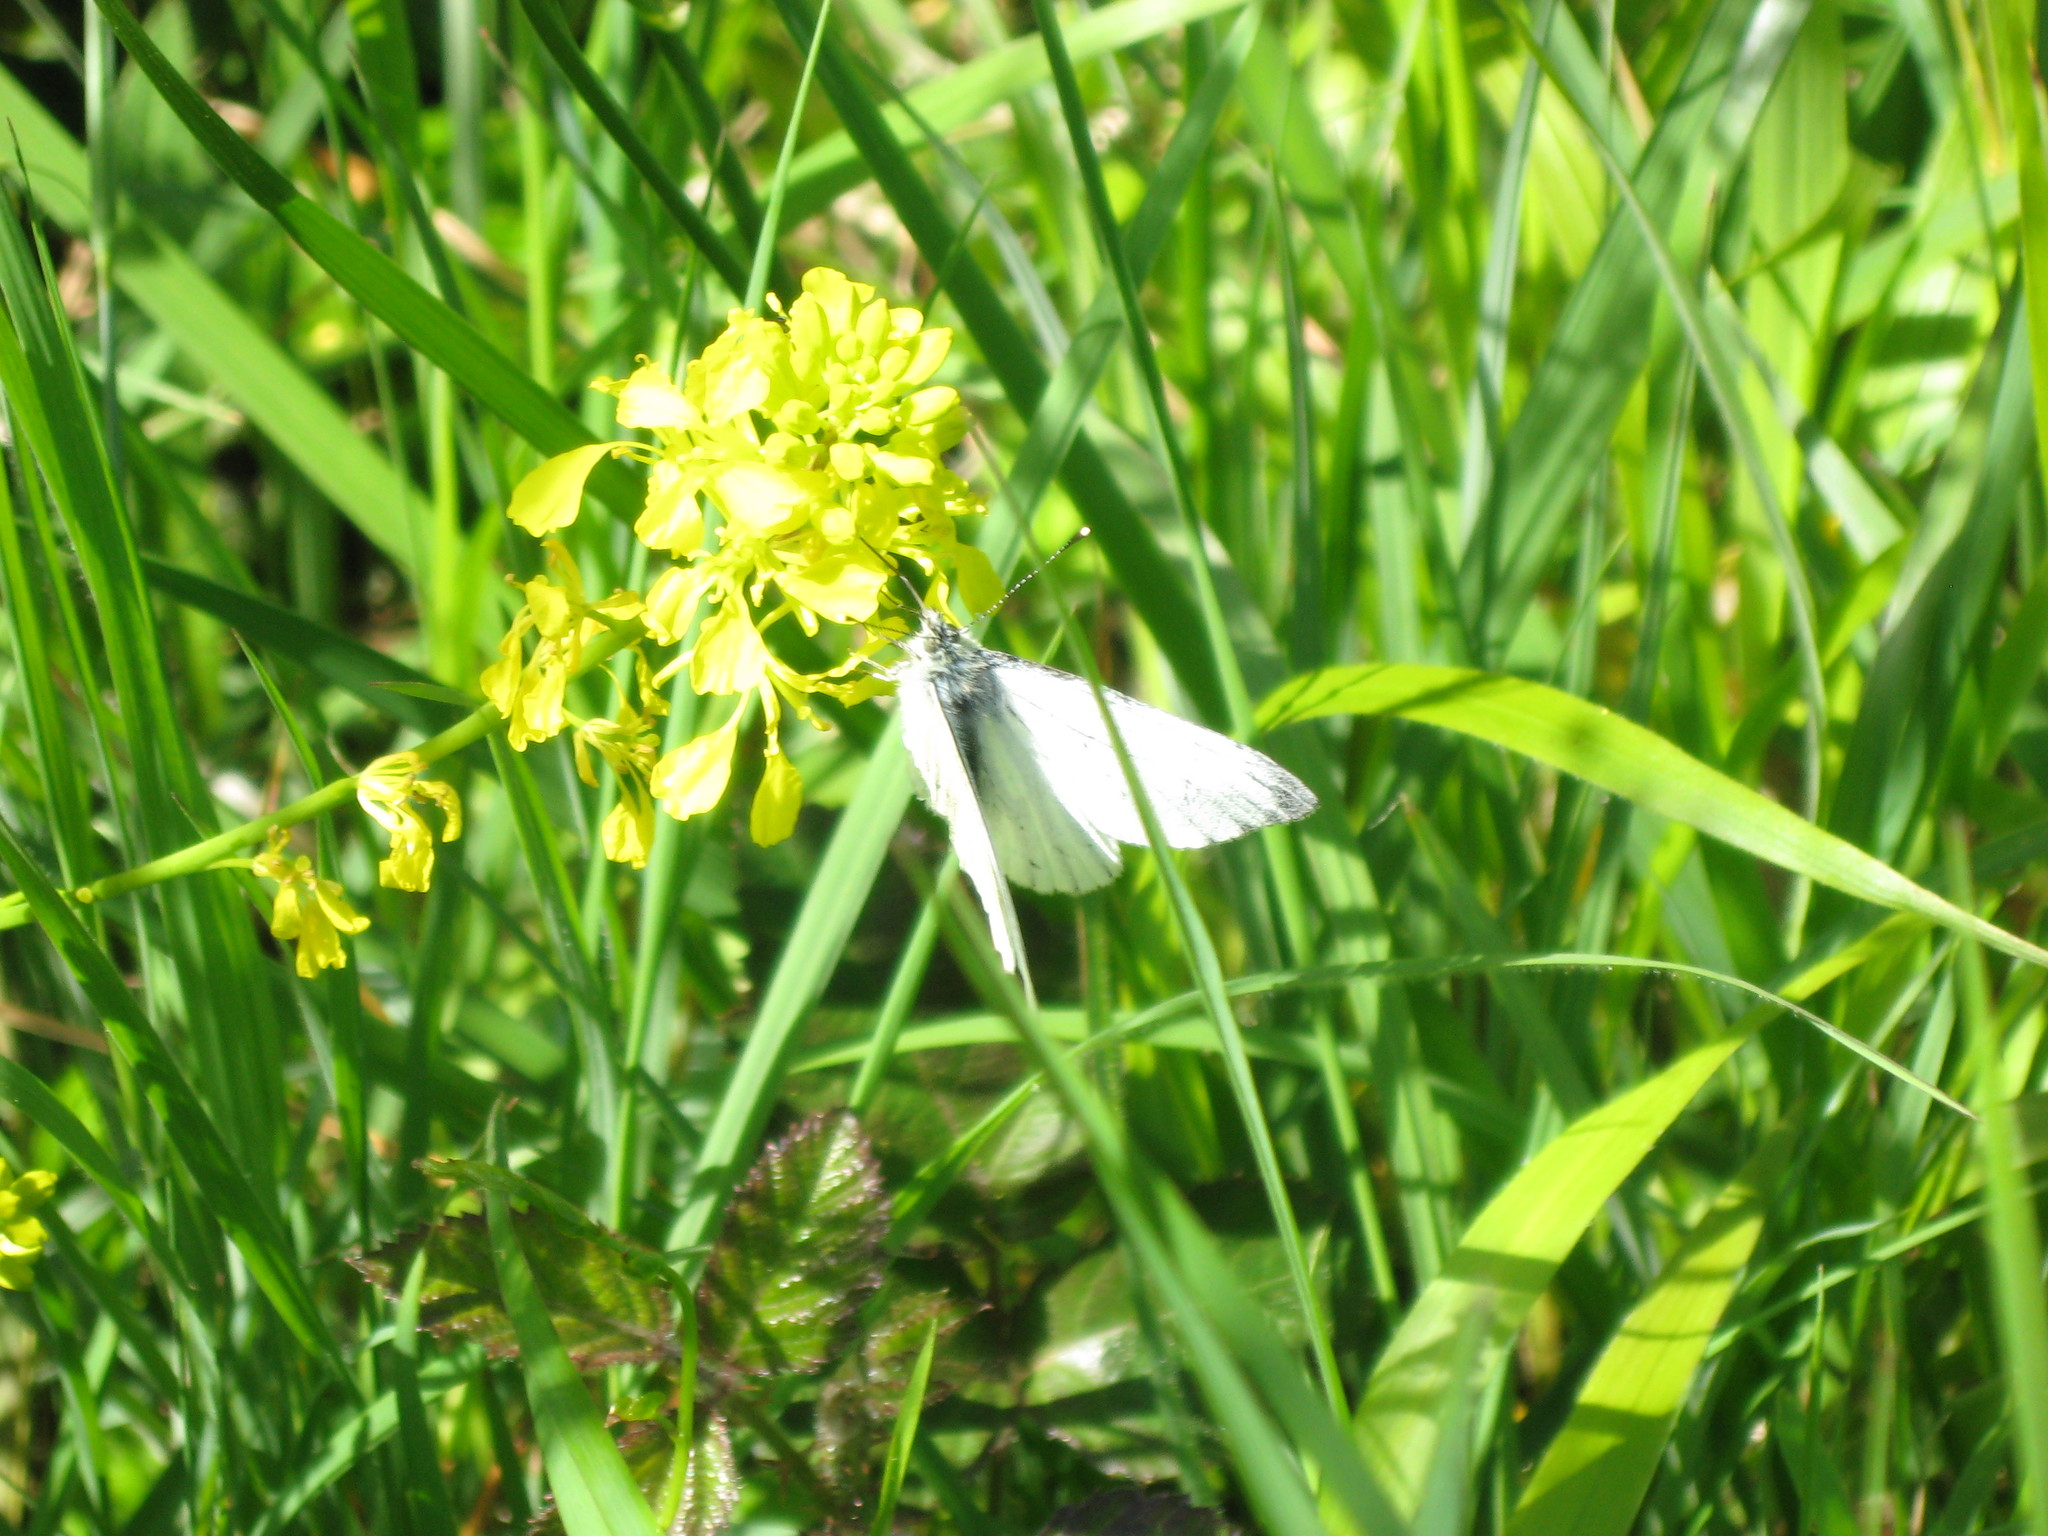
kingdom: Animalia
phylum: Arthropoda
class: Insecta
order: Lepidoptera
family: Pieridae
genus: Pieris
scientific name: Pieris napi
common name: Green-veined white
